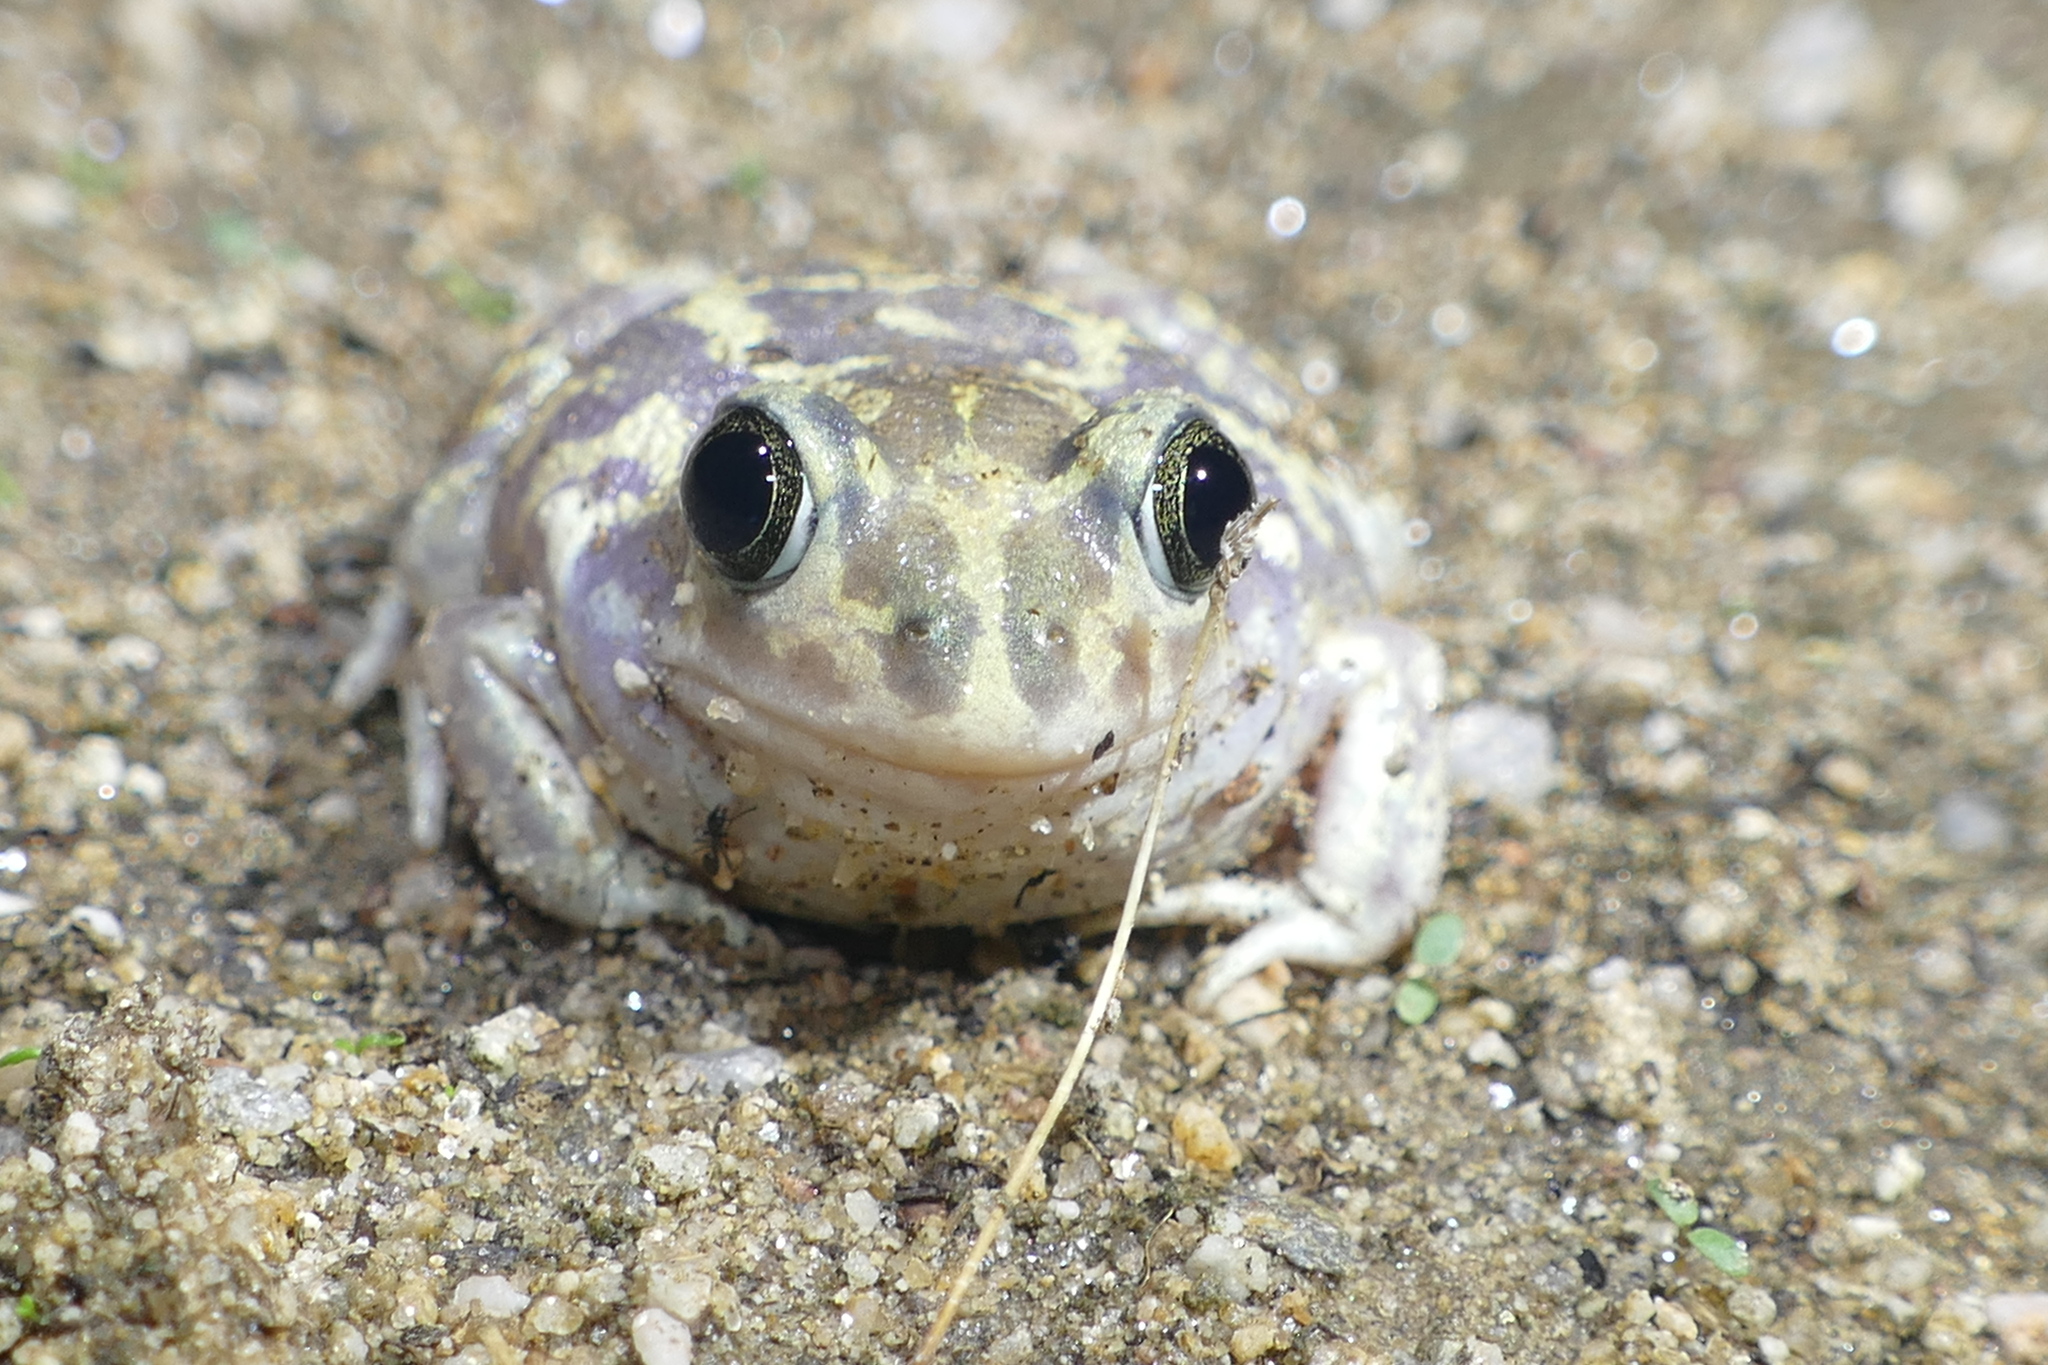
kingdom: Animalia
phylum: Chordata
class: Amphibia
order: Anura
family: Pelobatidae
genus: Pelobates
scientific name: Pelobates cultripes
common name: Western spadefoot
